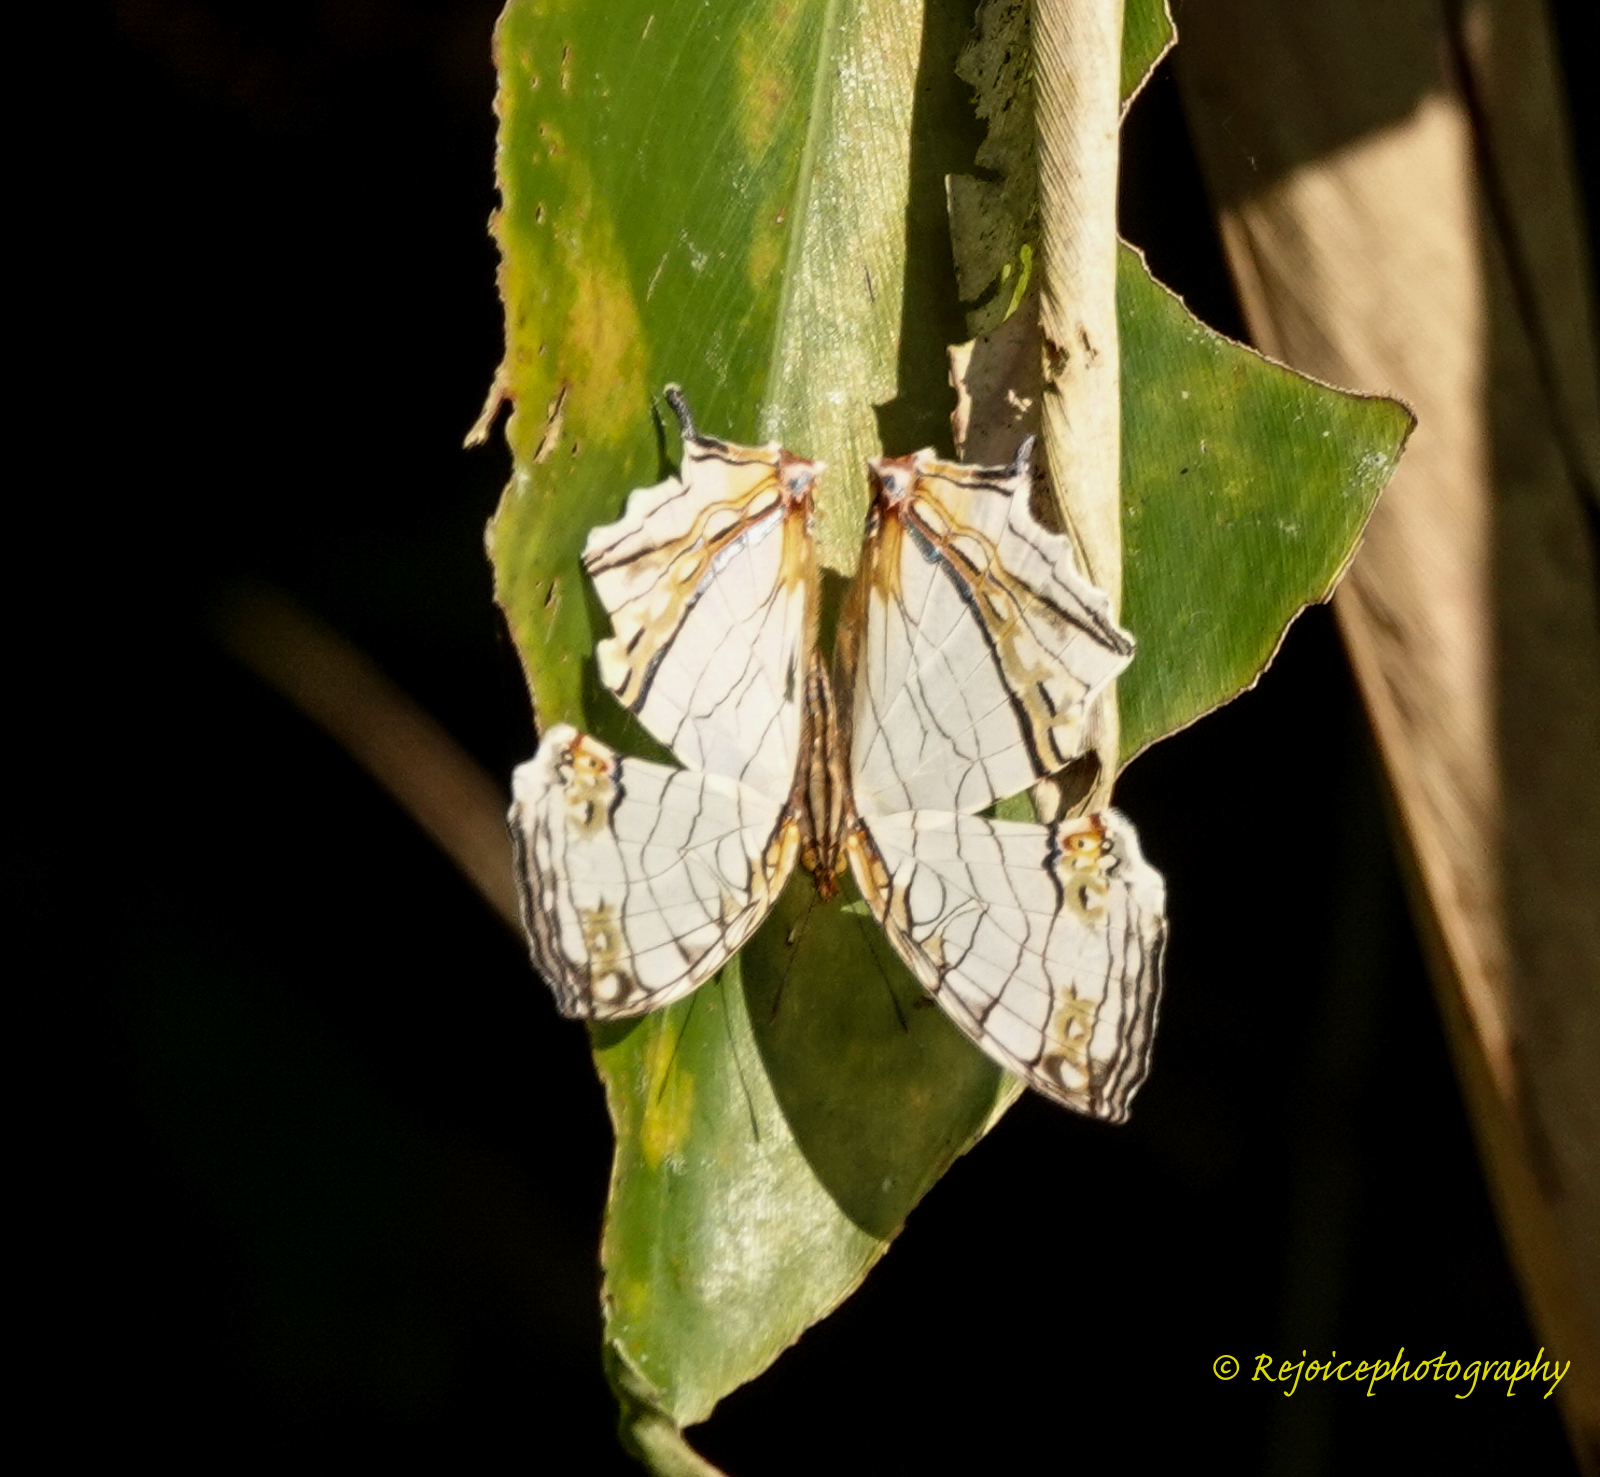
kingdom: Animalia
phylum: Arthropoda
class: Insecta
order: Lepidoptera
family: Nymphalidae
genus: Cyrestis
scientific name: Cyrestis thyodamas
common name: Common mapwing
